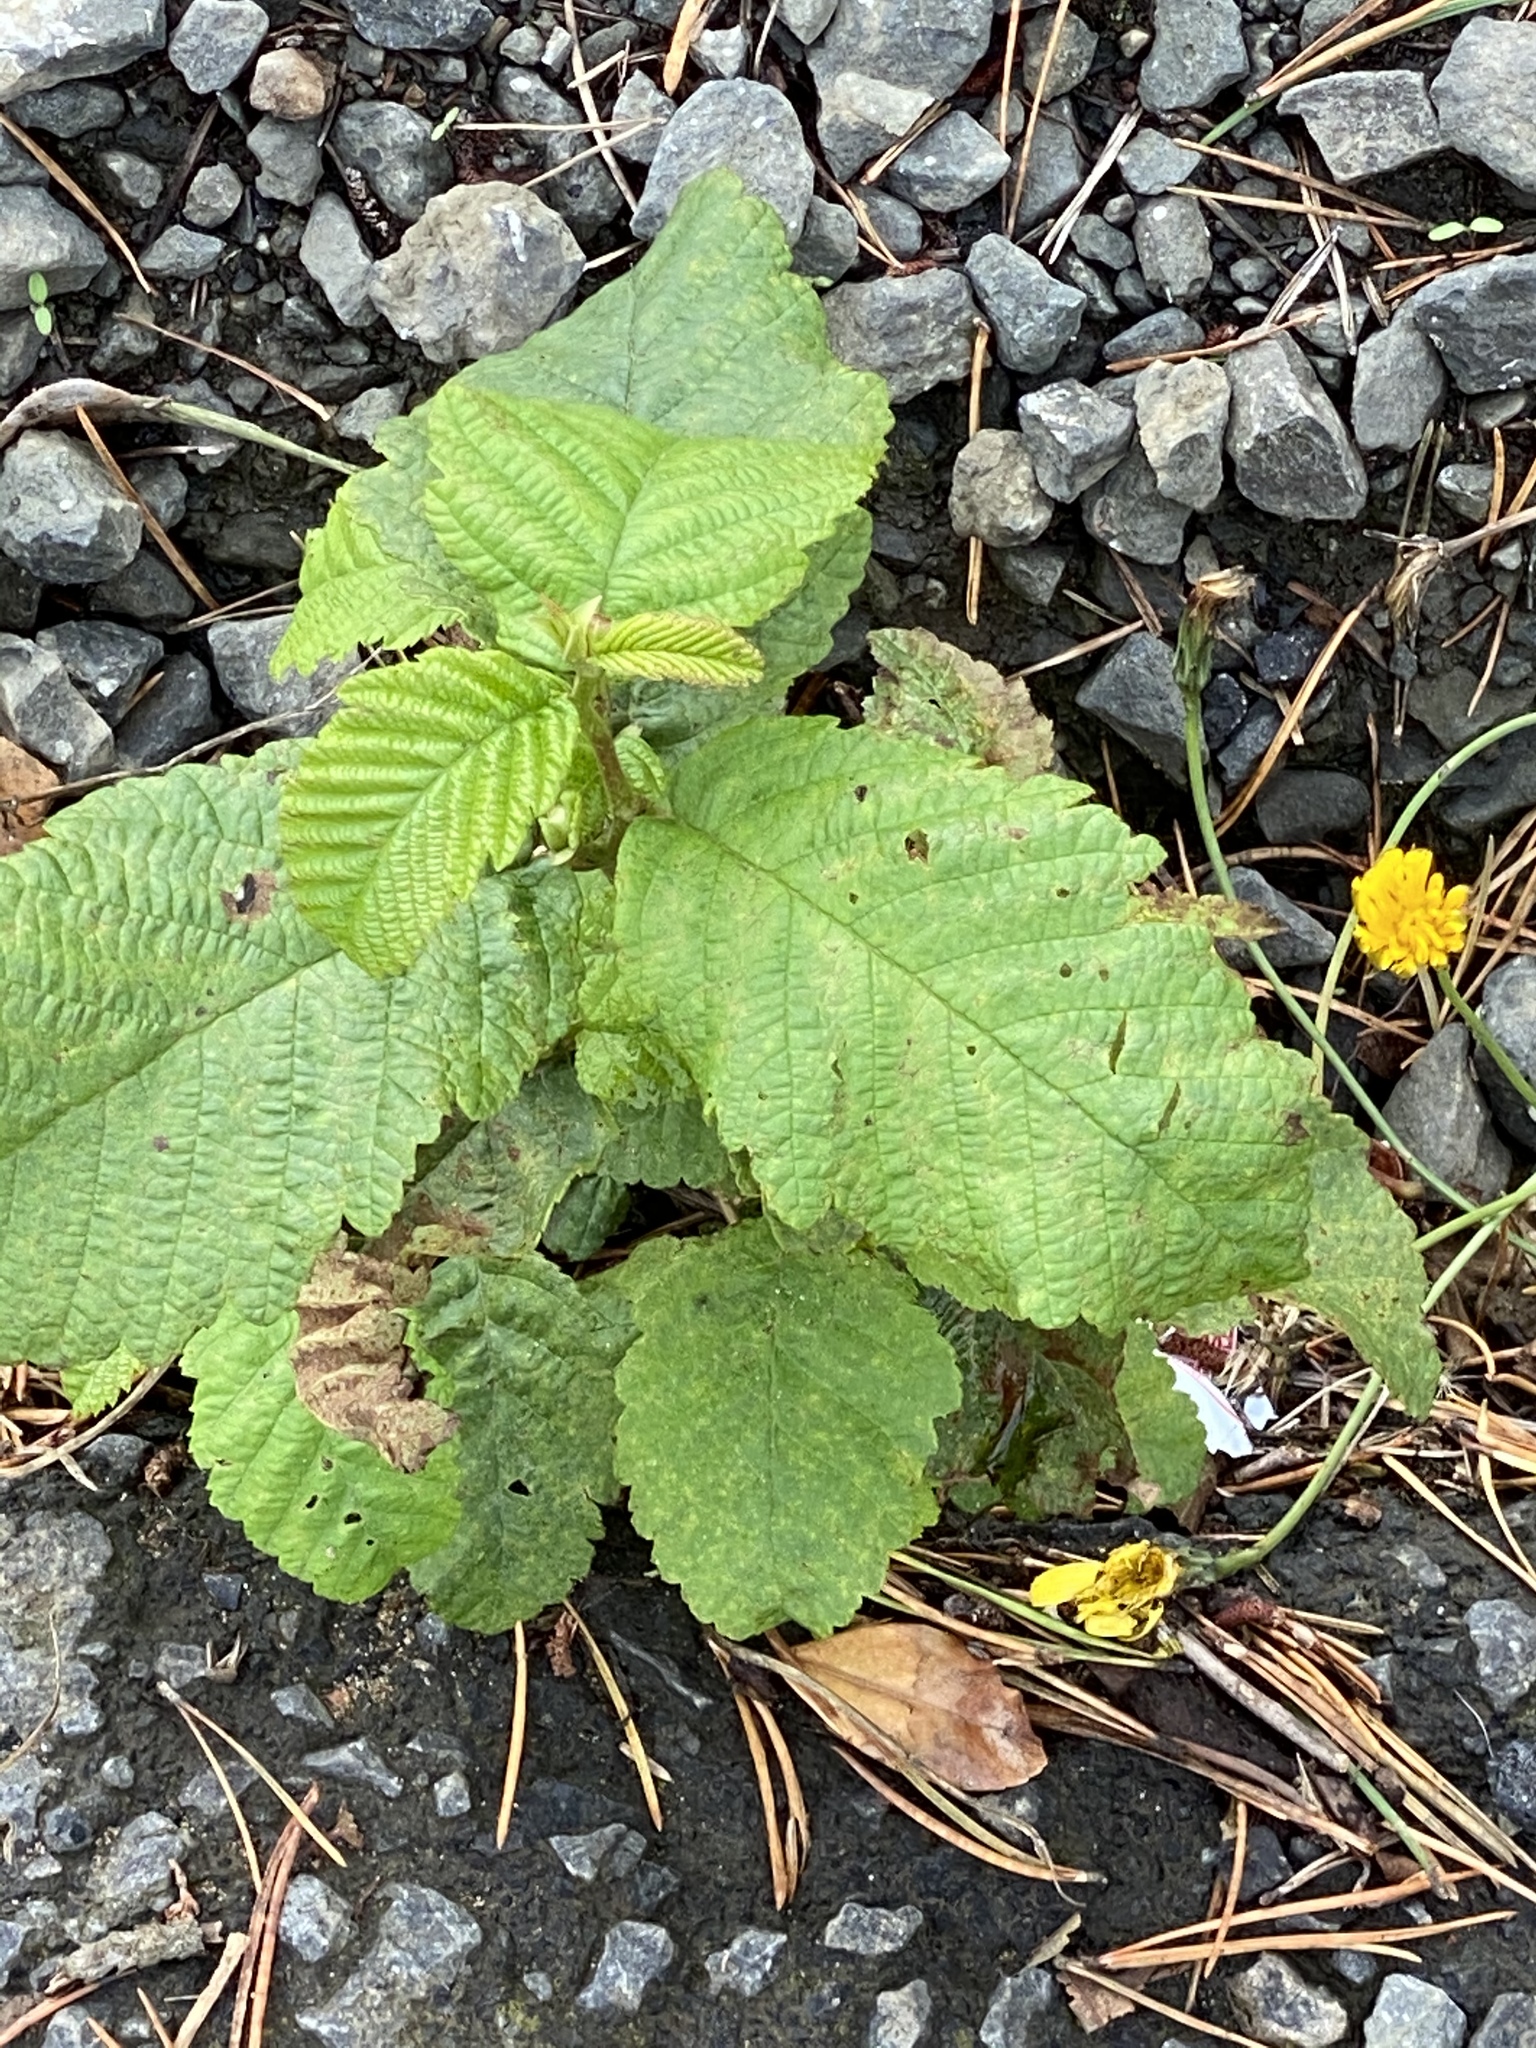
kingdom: Plantae
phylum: Tracheophyta
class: Magnoliopsida
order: Fagales
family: Betulaceae
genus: Alnus
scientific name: Alnus rubra
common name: Red alder
